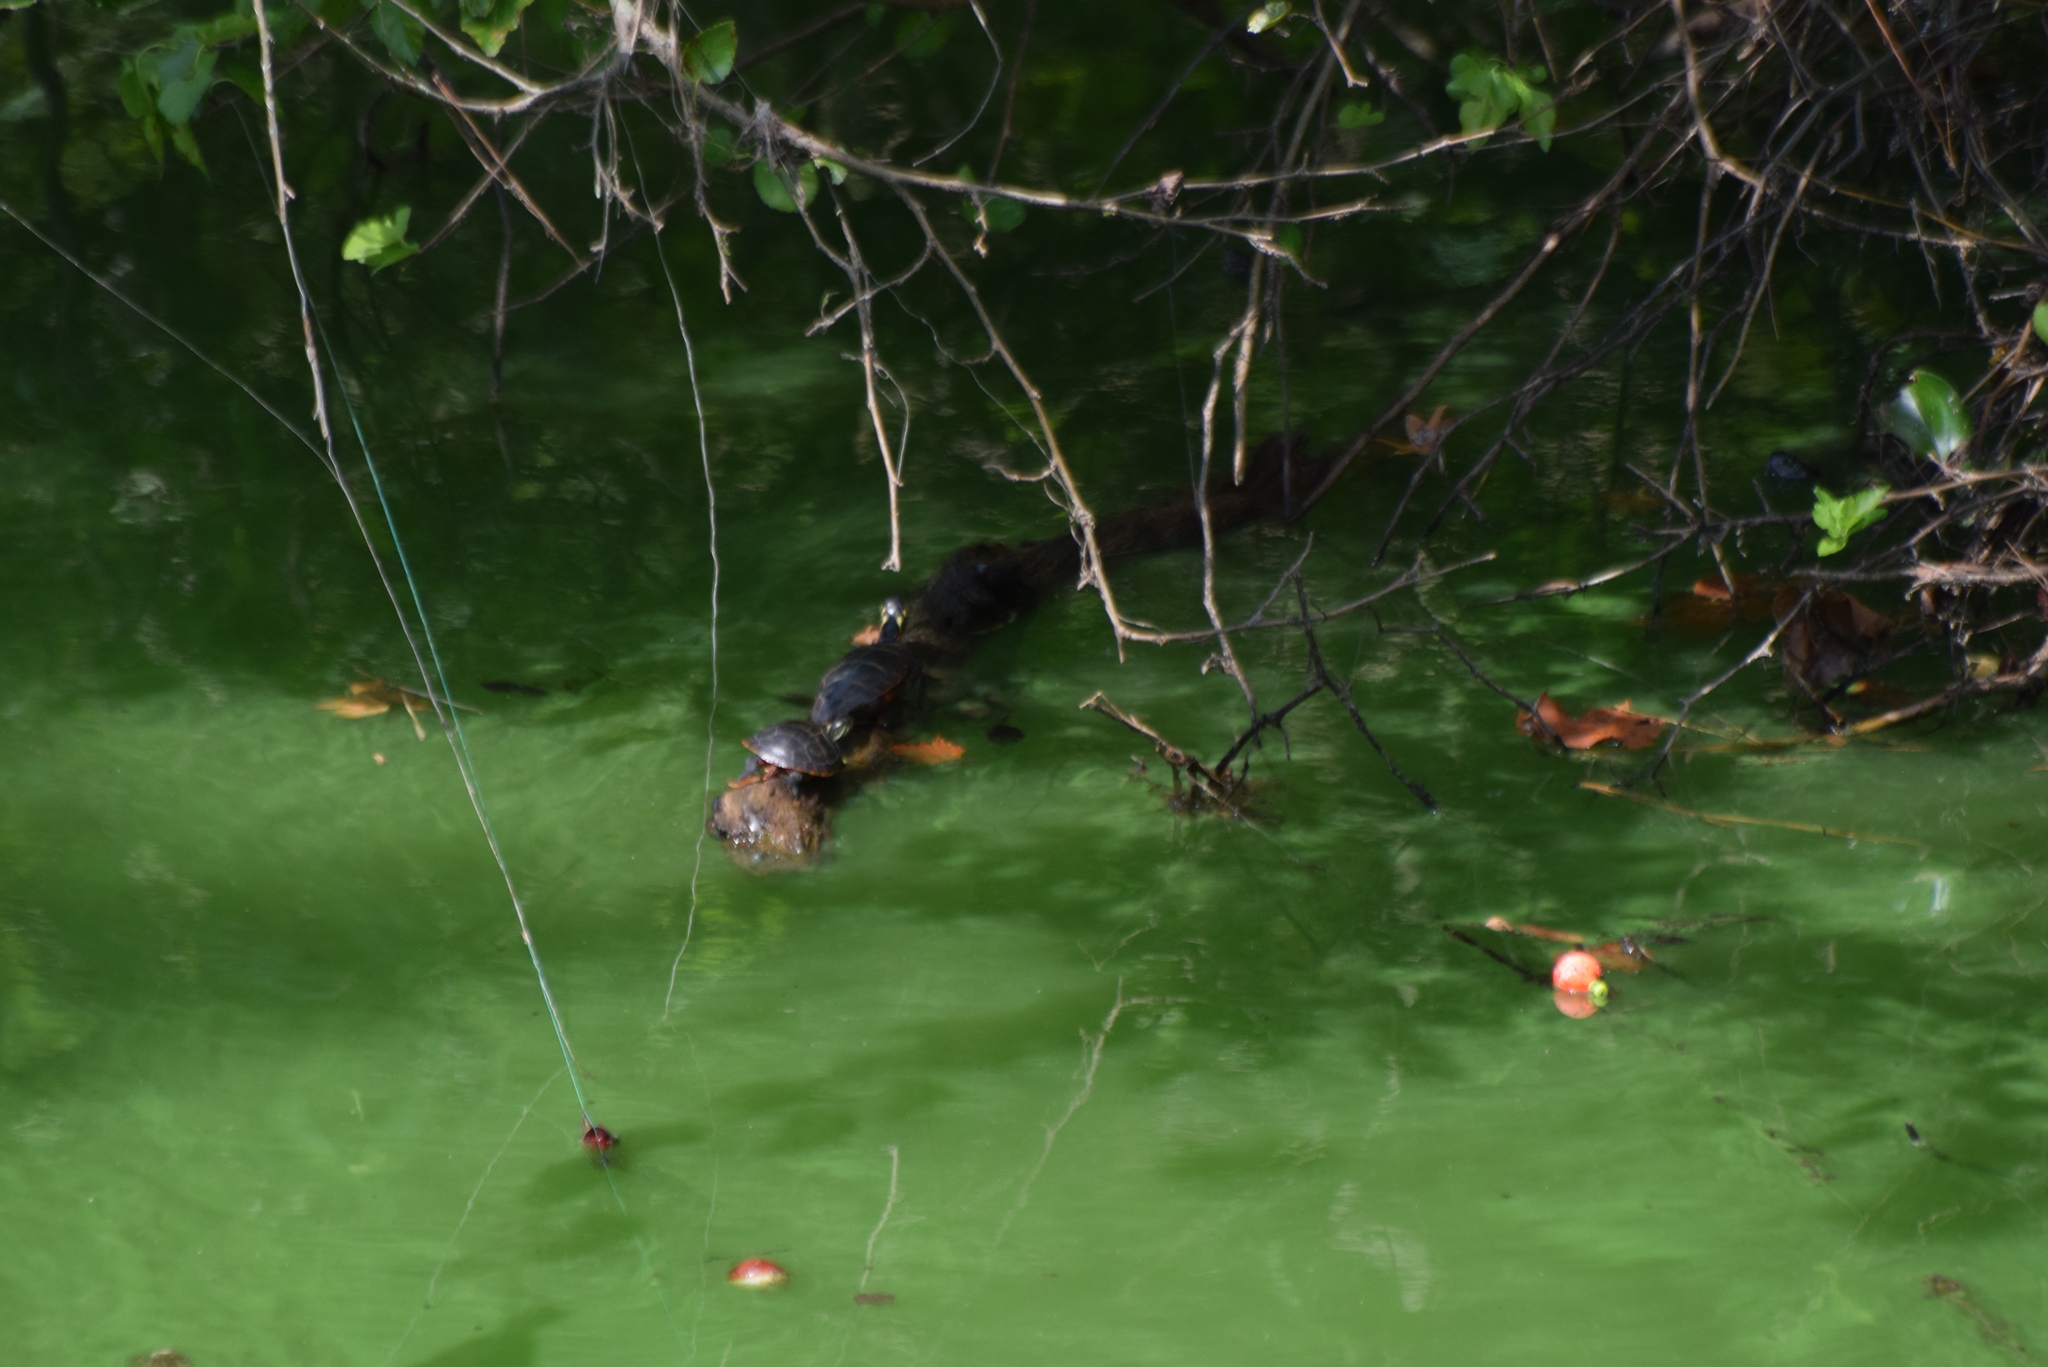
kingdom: Animalia
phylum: Chordata
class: Testudines
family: Emydidae
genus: Chrysemys
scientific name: Chrysemys picta
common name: Painted turtle
